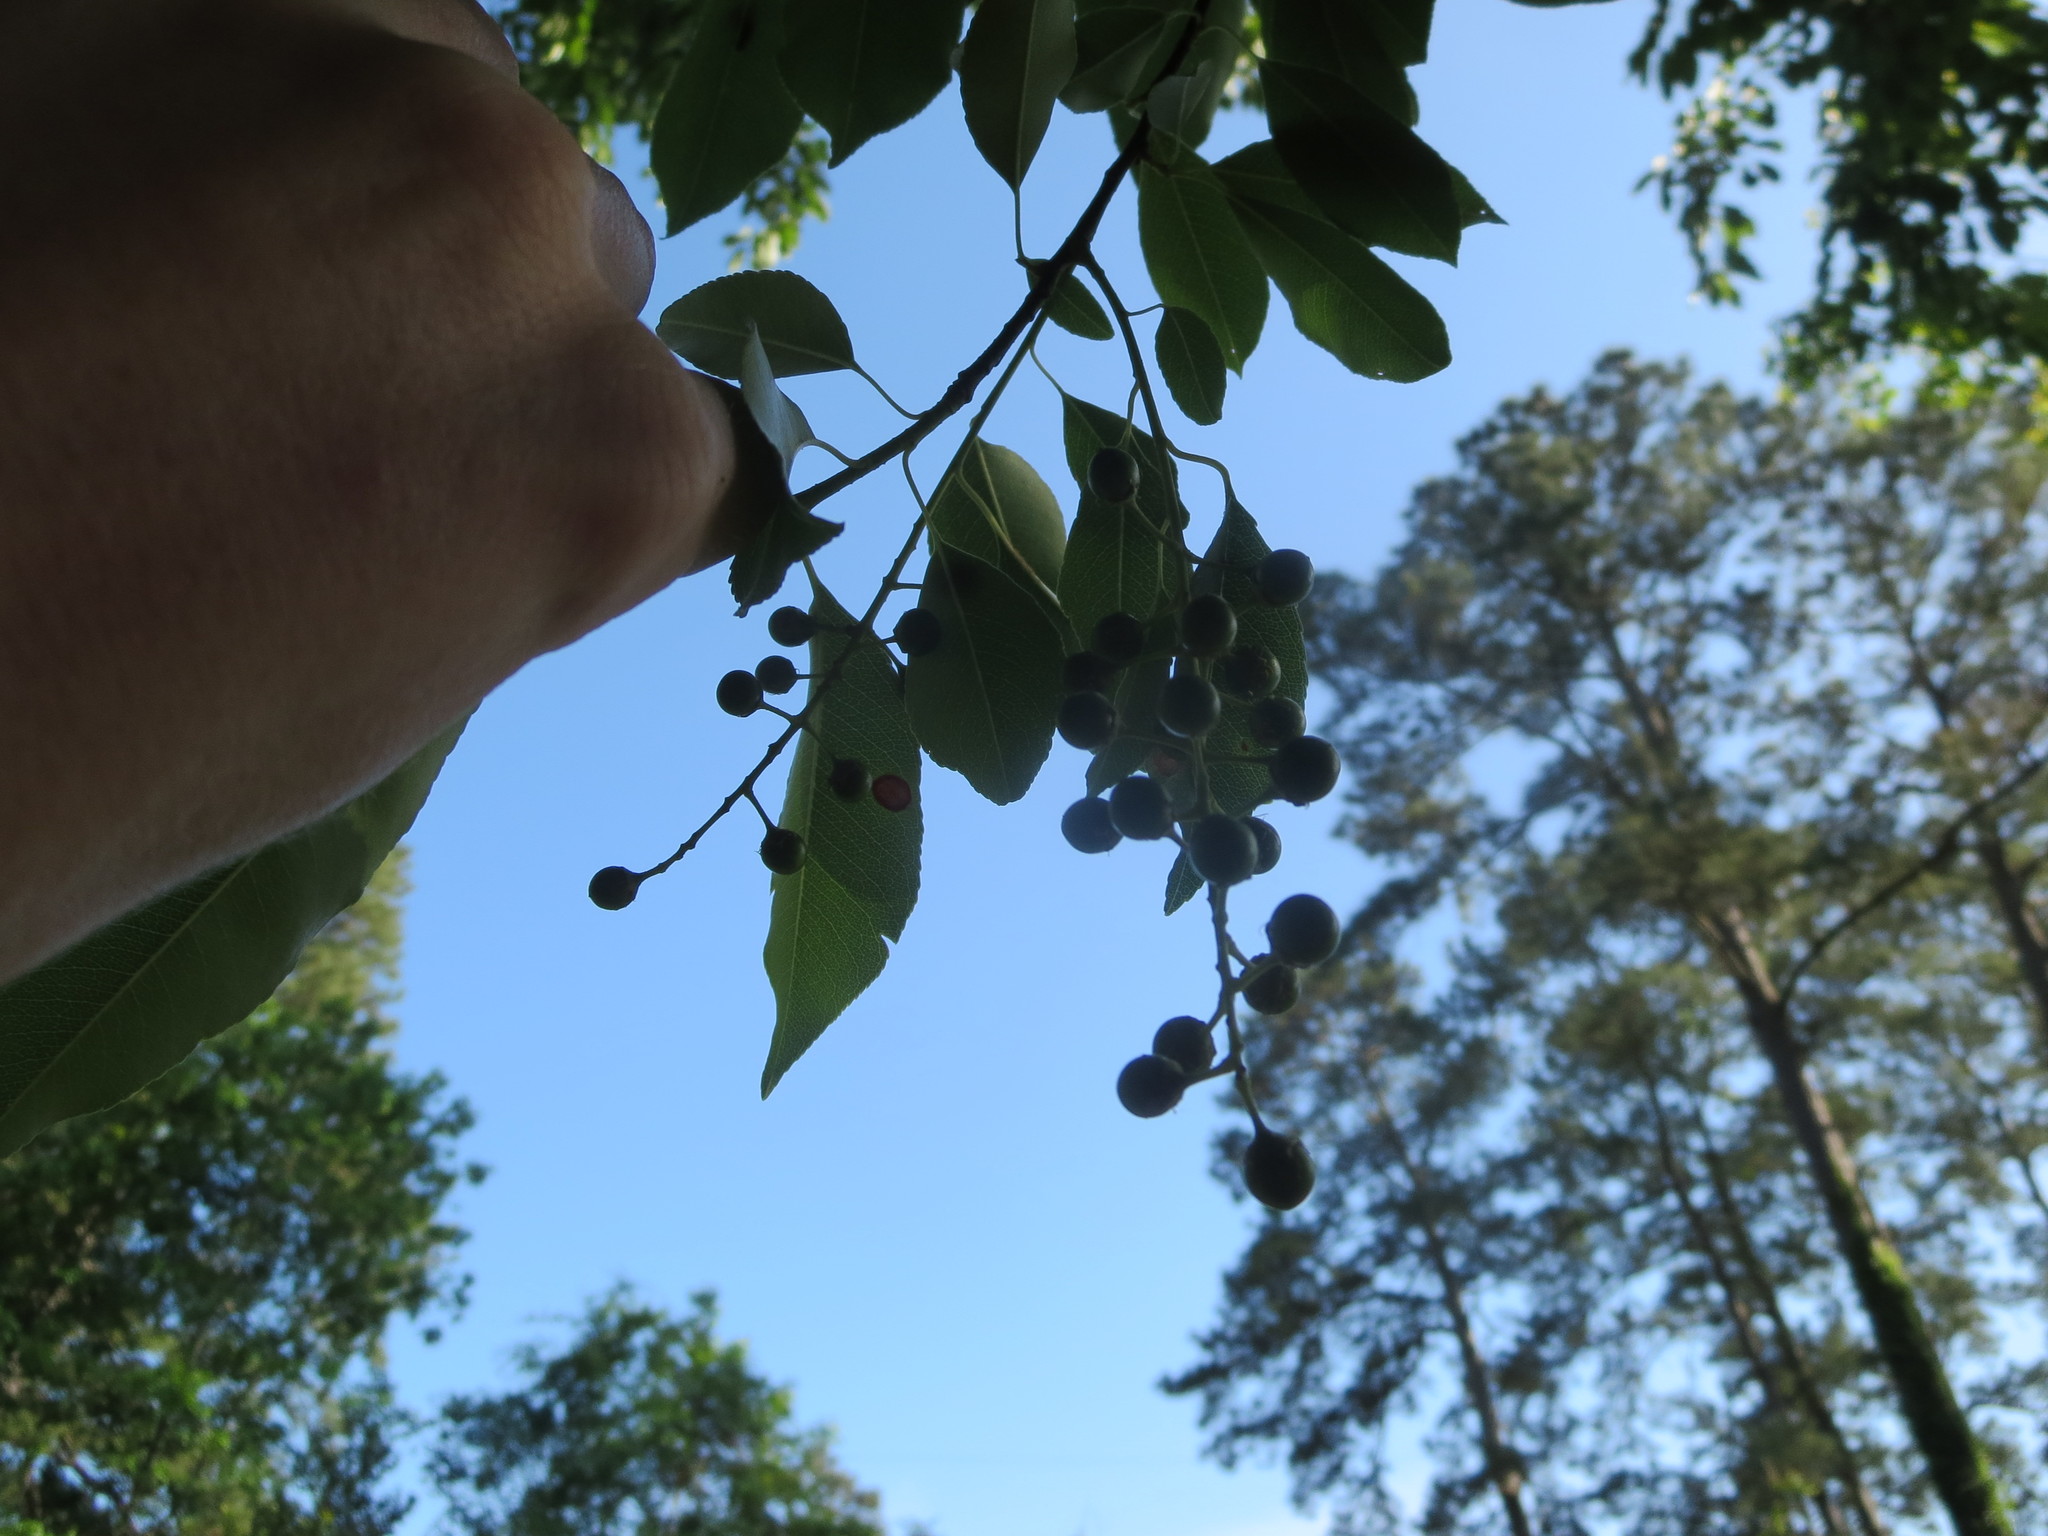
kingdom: Plantae
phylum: Tracheophyta
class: Magnoliopsida
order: Rosales
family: Rosaceae
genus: Prunus
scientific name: Prunus serotina
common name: Black cherry
